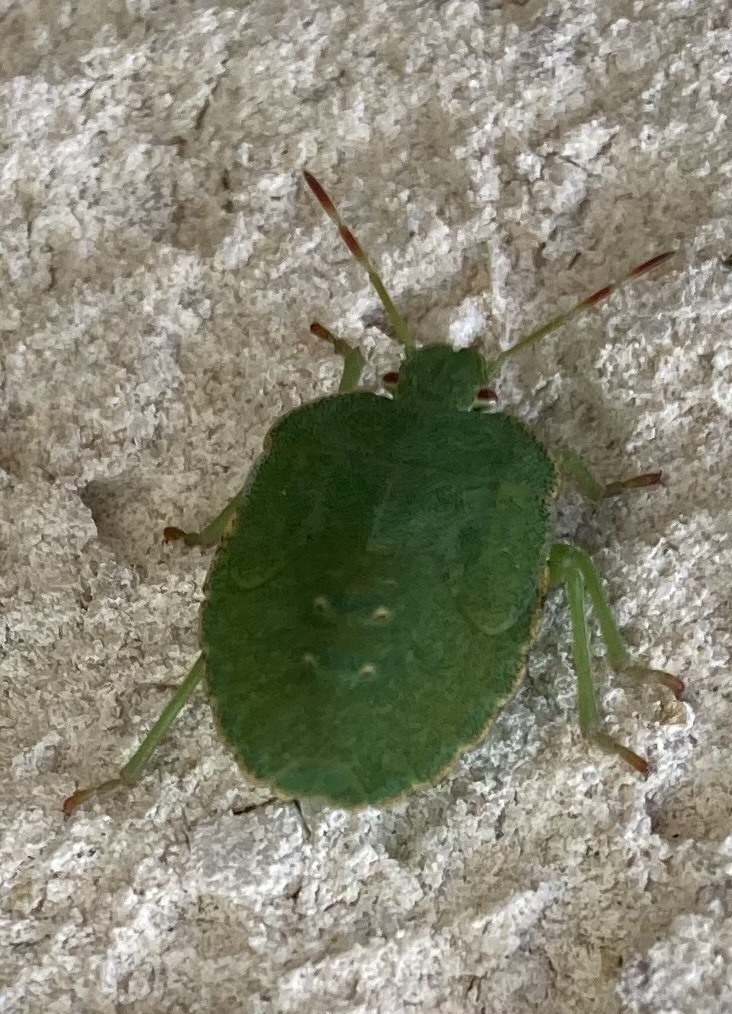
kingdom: Animalia
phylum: Arthropoda
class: Insecta
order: Hemiptera
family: Pentatomidae
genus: Palomena
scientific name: Palomena prasina
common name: Green shieldbug
